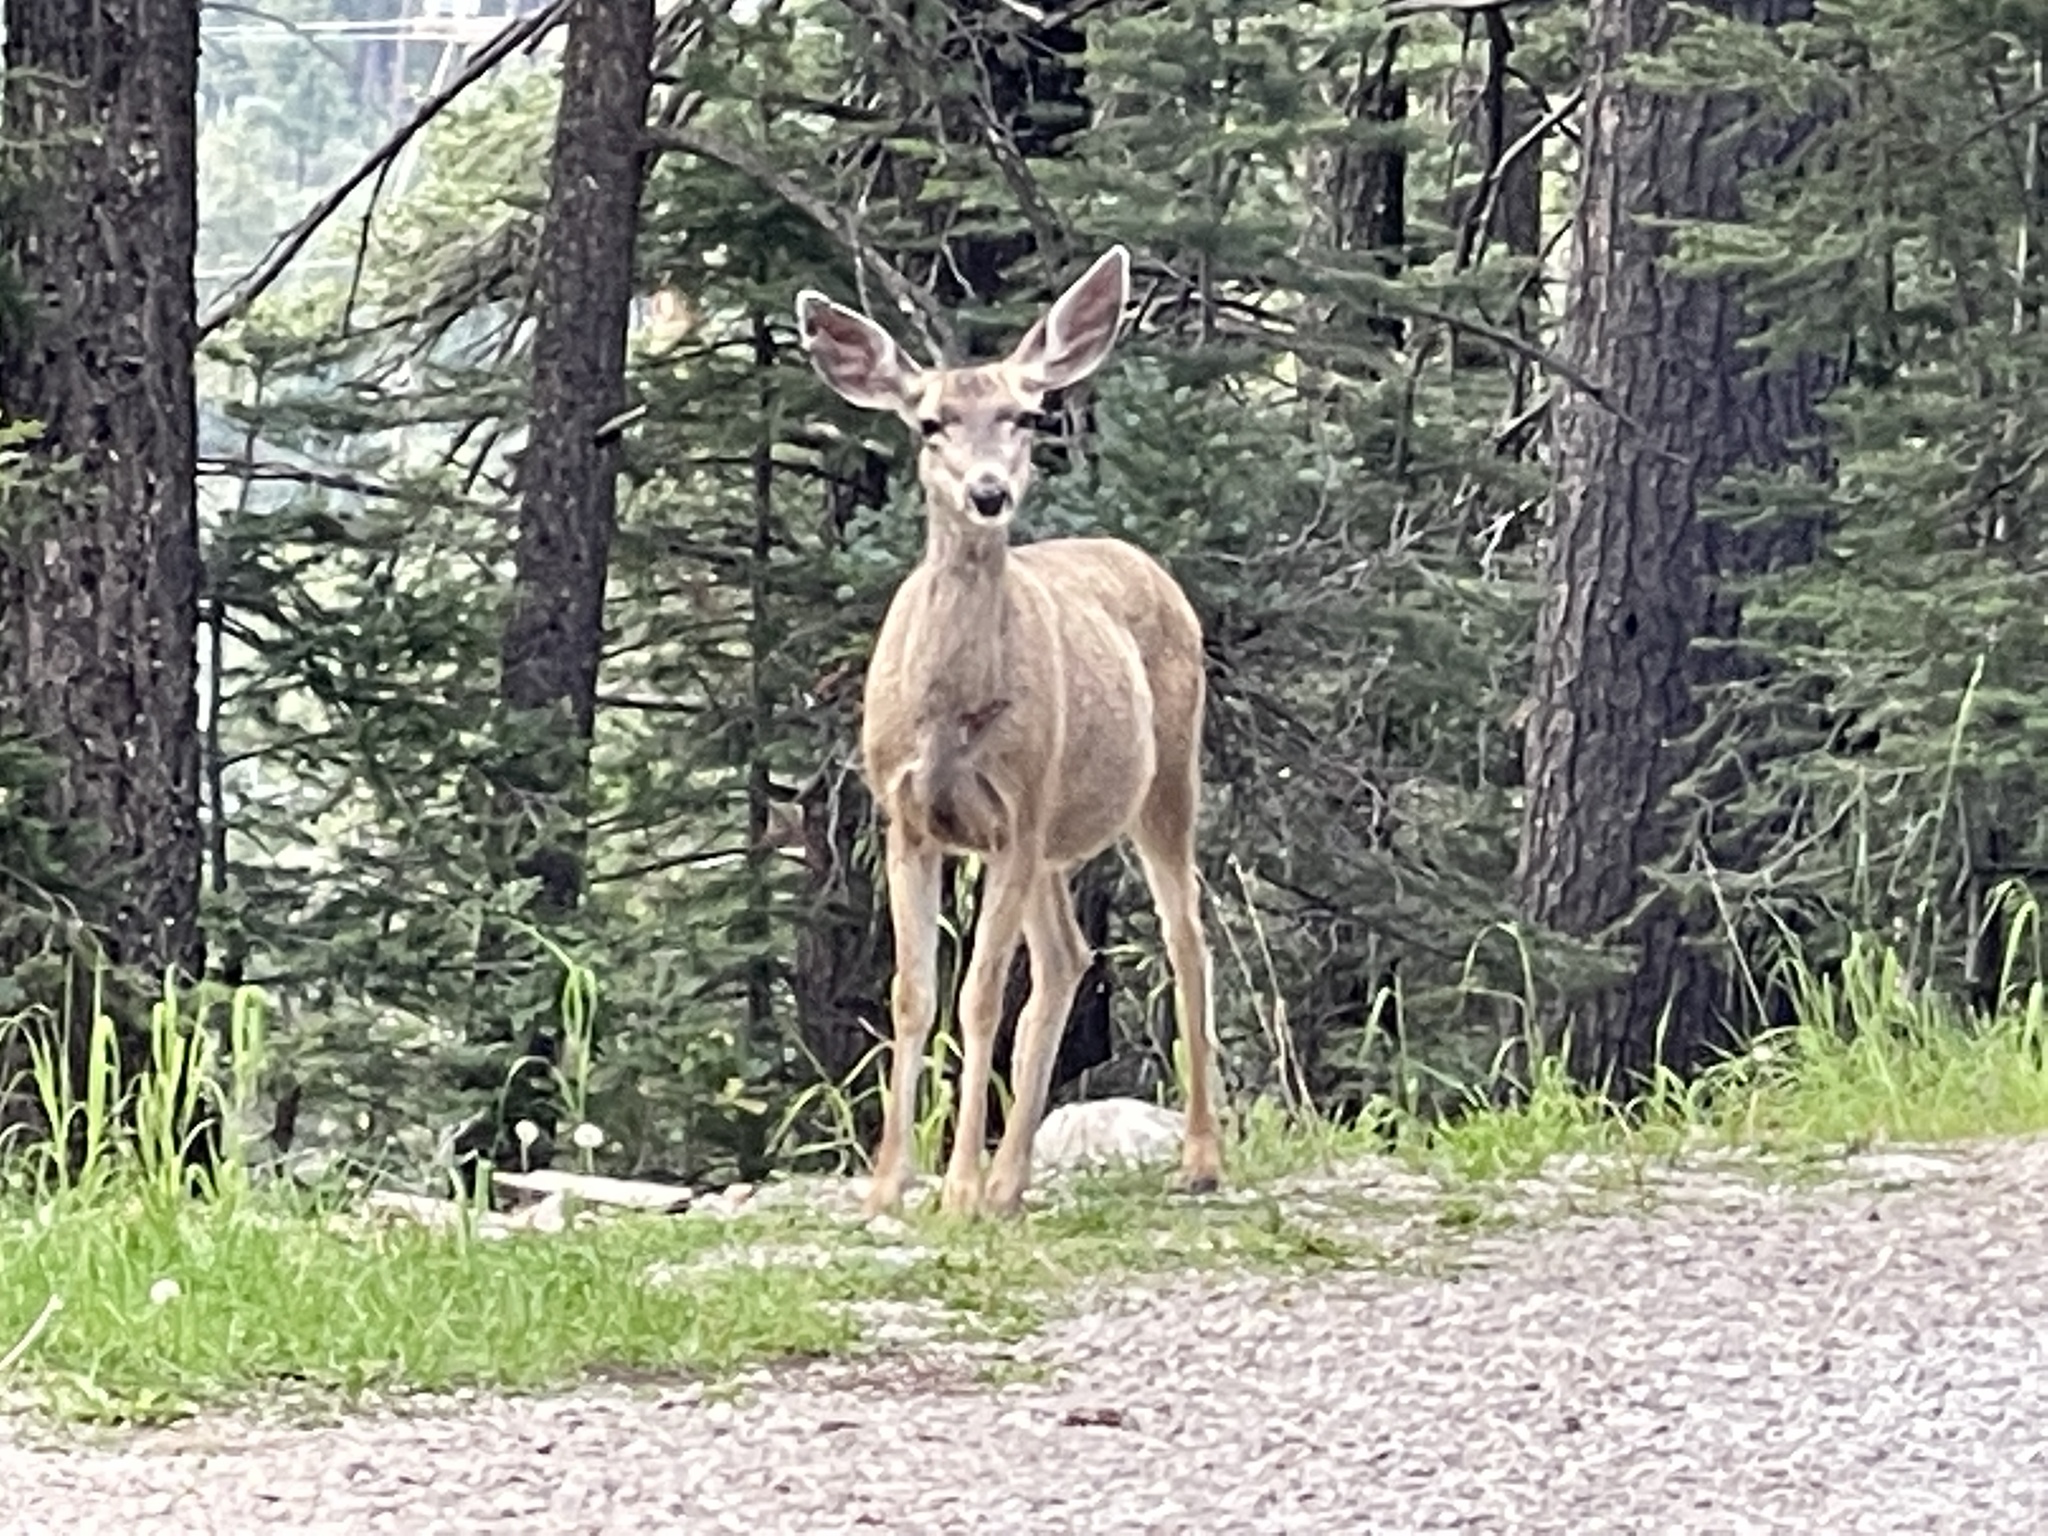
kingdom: Animalia
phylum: Chordata
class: Mammalia
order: Artiodactyla
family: Cervidae
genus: Odocoileus
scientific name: Odocoileus hemionus
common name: Mule deer
